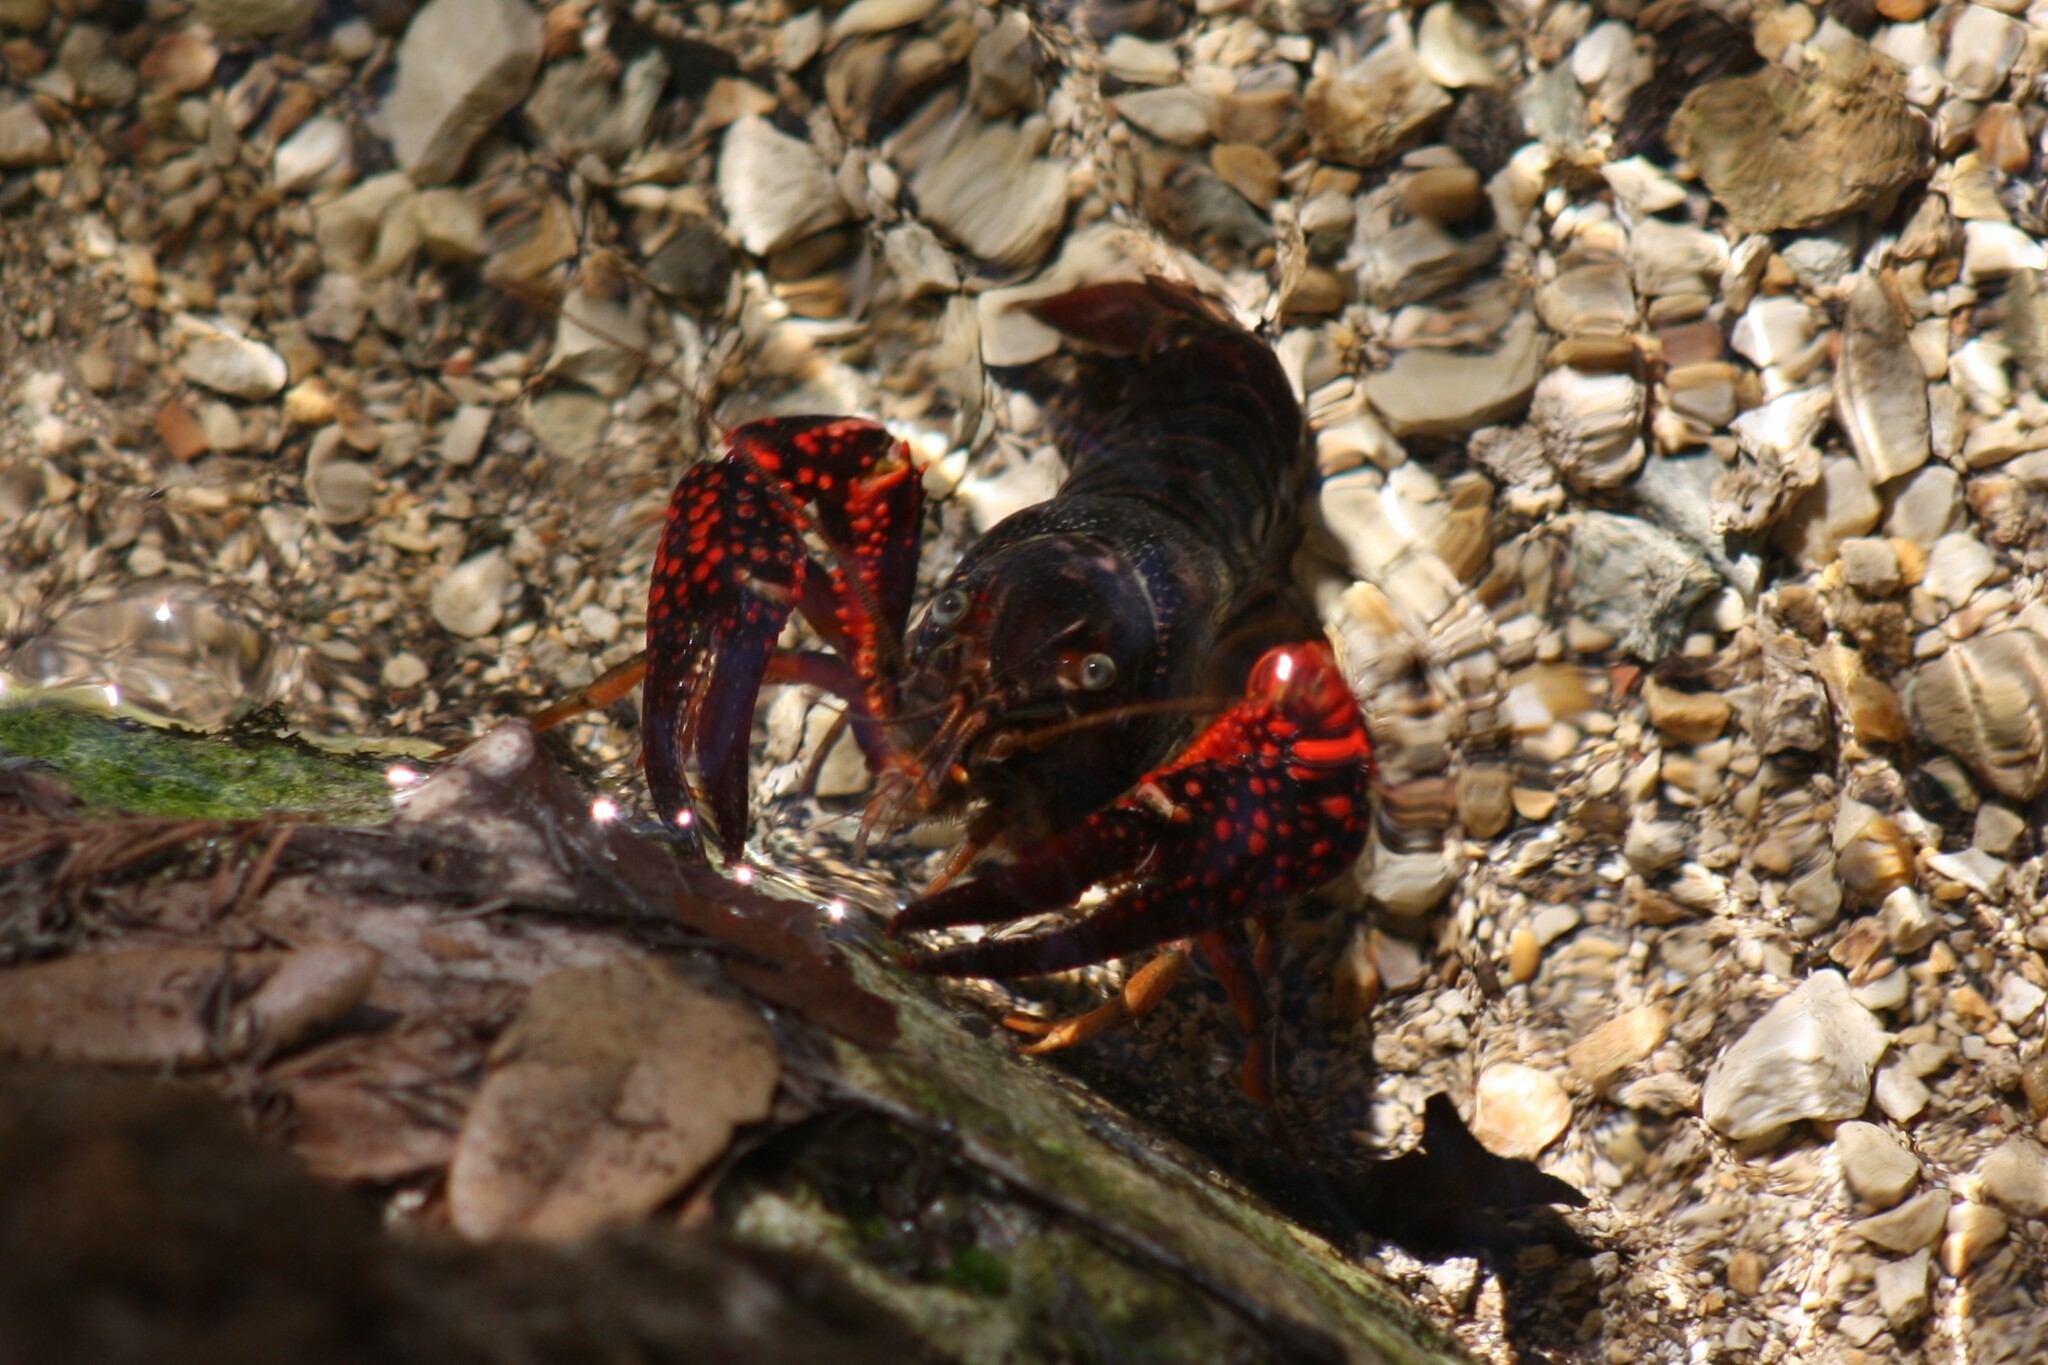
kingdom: Animalia
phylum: Arthropoda
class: Malacostraca
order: Decapoda
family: Cambaridae
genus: Procambarus
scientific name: Procambarus clarkii
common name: Red swamp crayfish
